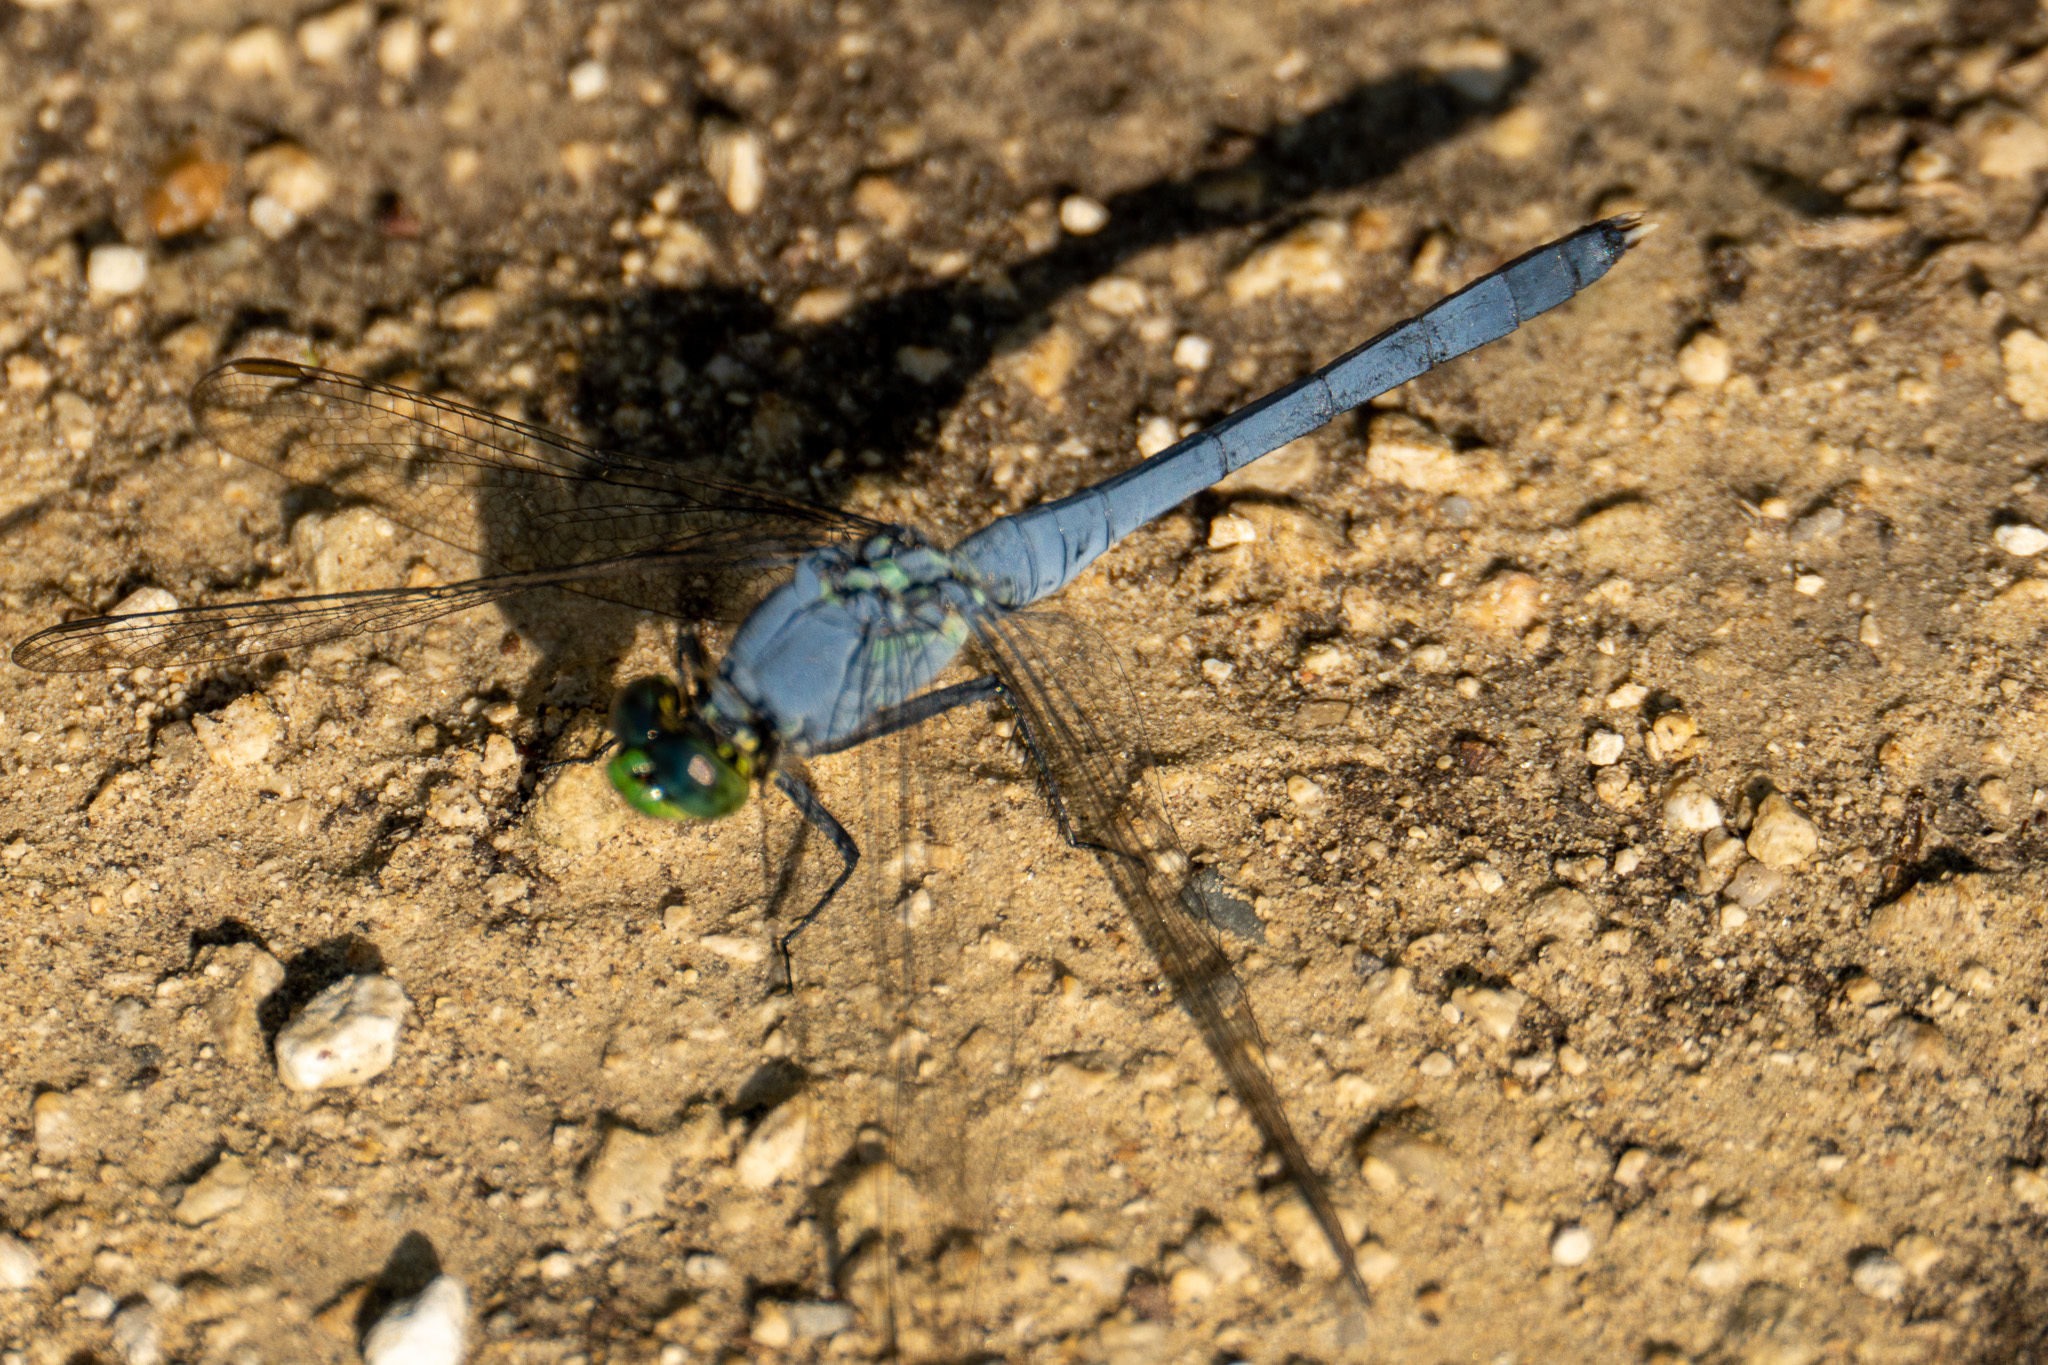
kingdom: Animalia
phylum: Arthropoda
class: Insecta
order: Odonata
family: Libellulidae
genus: Erythemis
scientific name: Erythemis simplicicollis
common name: Eastern pondhawk
